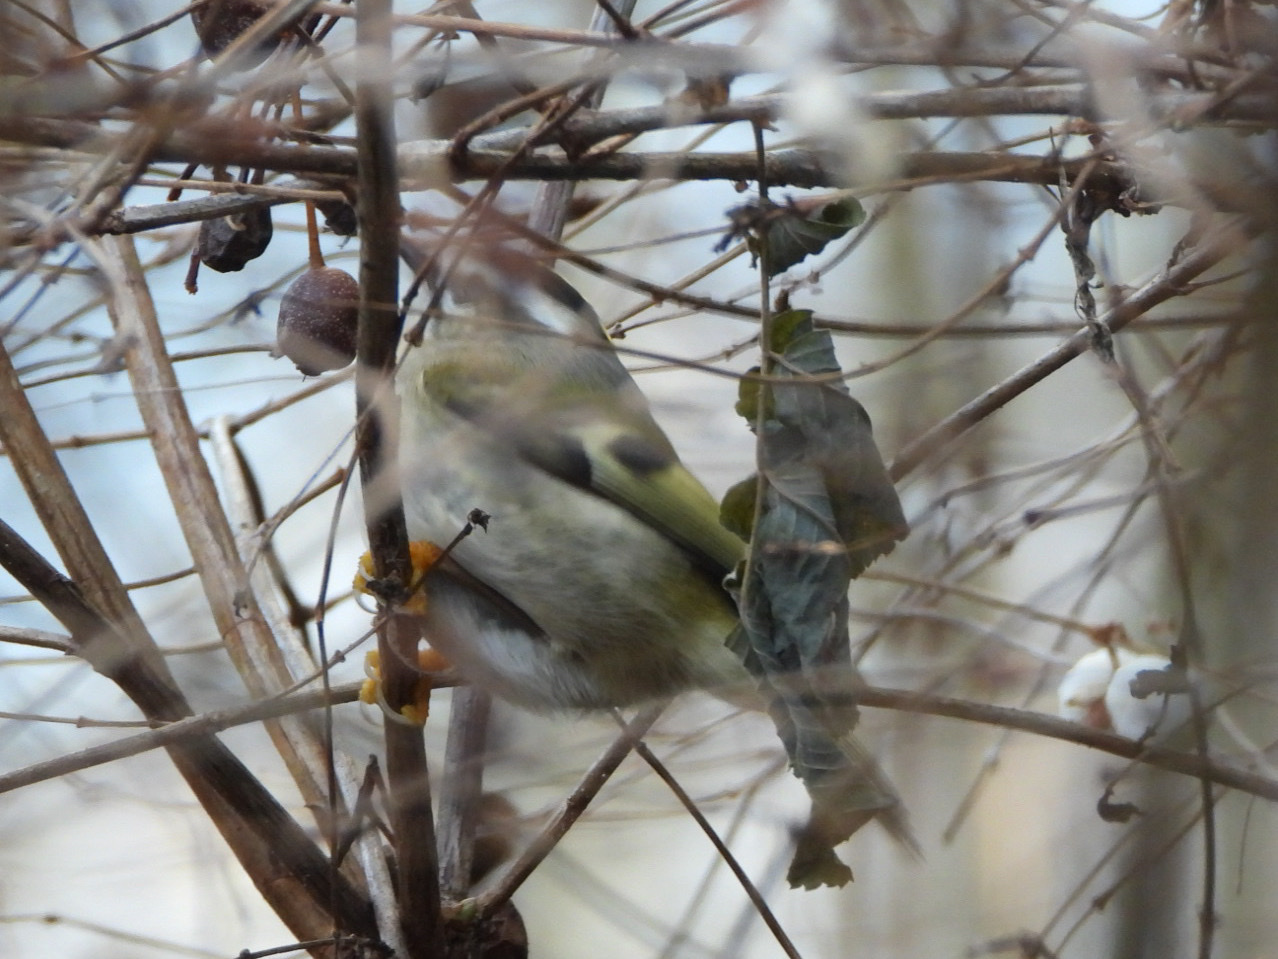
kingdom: Animalia
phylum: Chordata
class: Aves
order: Passeriformes
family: Regulidae
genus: Regulus
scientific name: Regulus satrapa
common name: Golden-crowned kinglet
